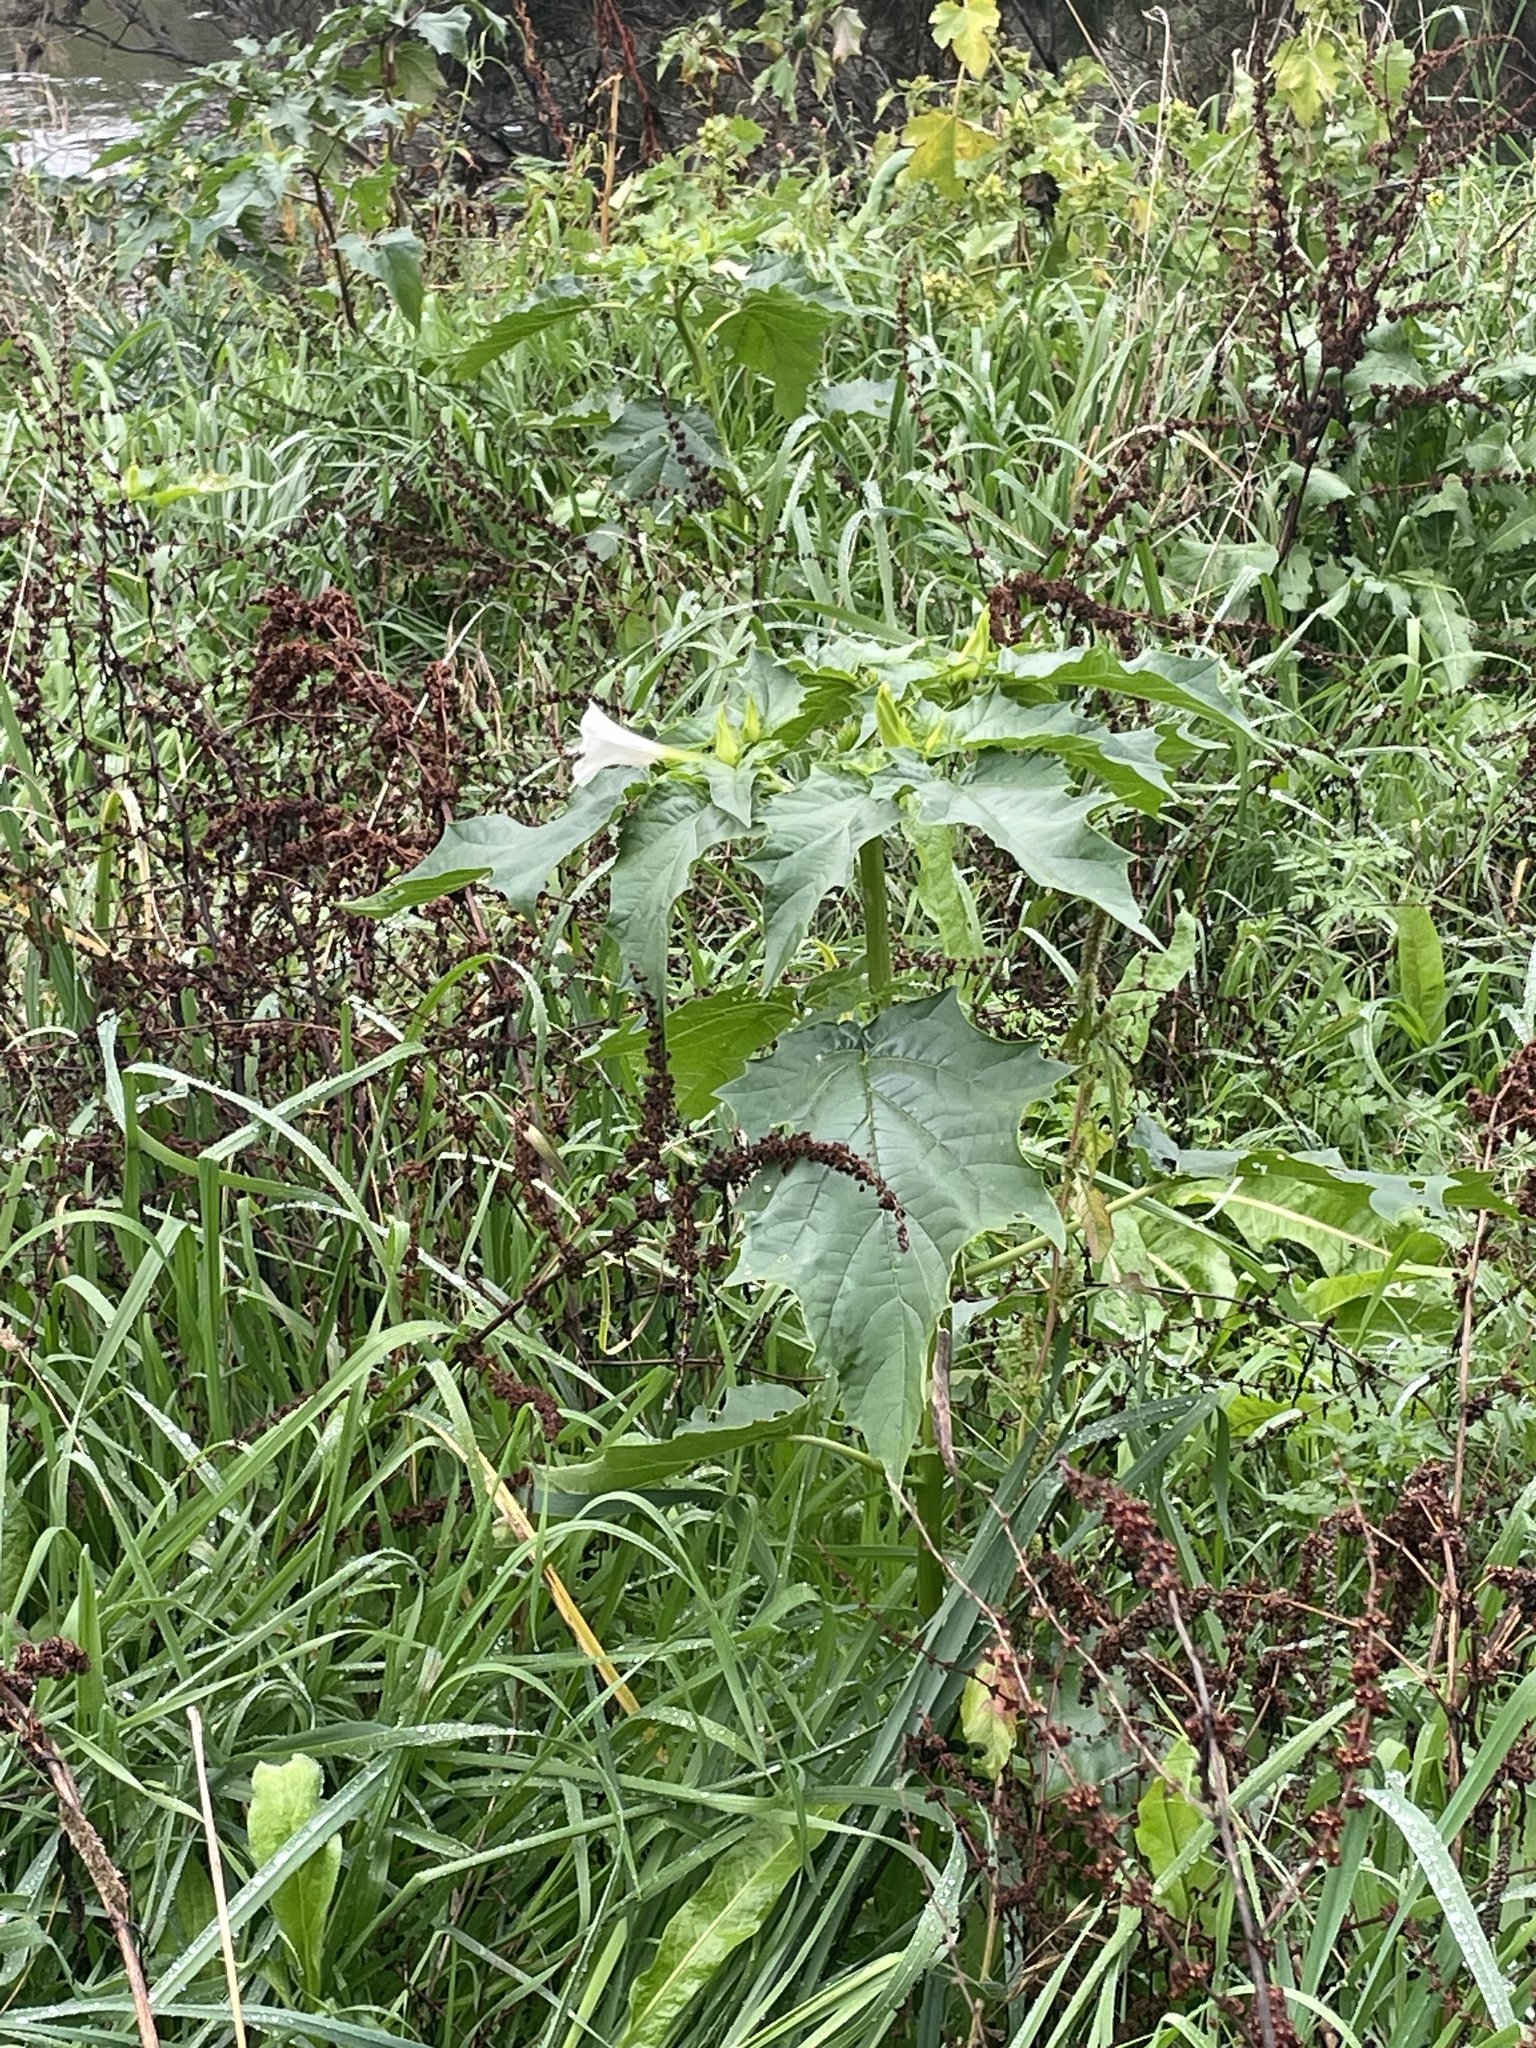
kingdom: Plantae
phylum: Tracheophyta
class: Magnoliopsida
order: Solanales
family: Solanaceae
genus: Datura
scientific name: Datura stramonium
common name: Thorn-apple
